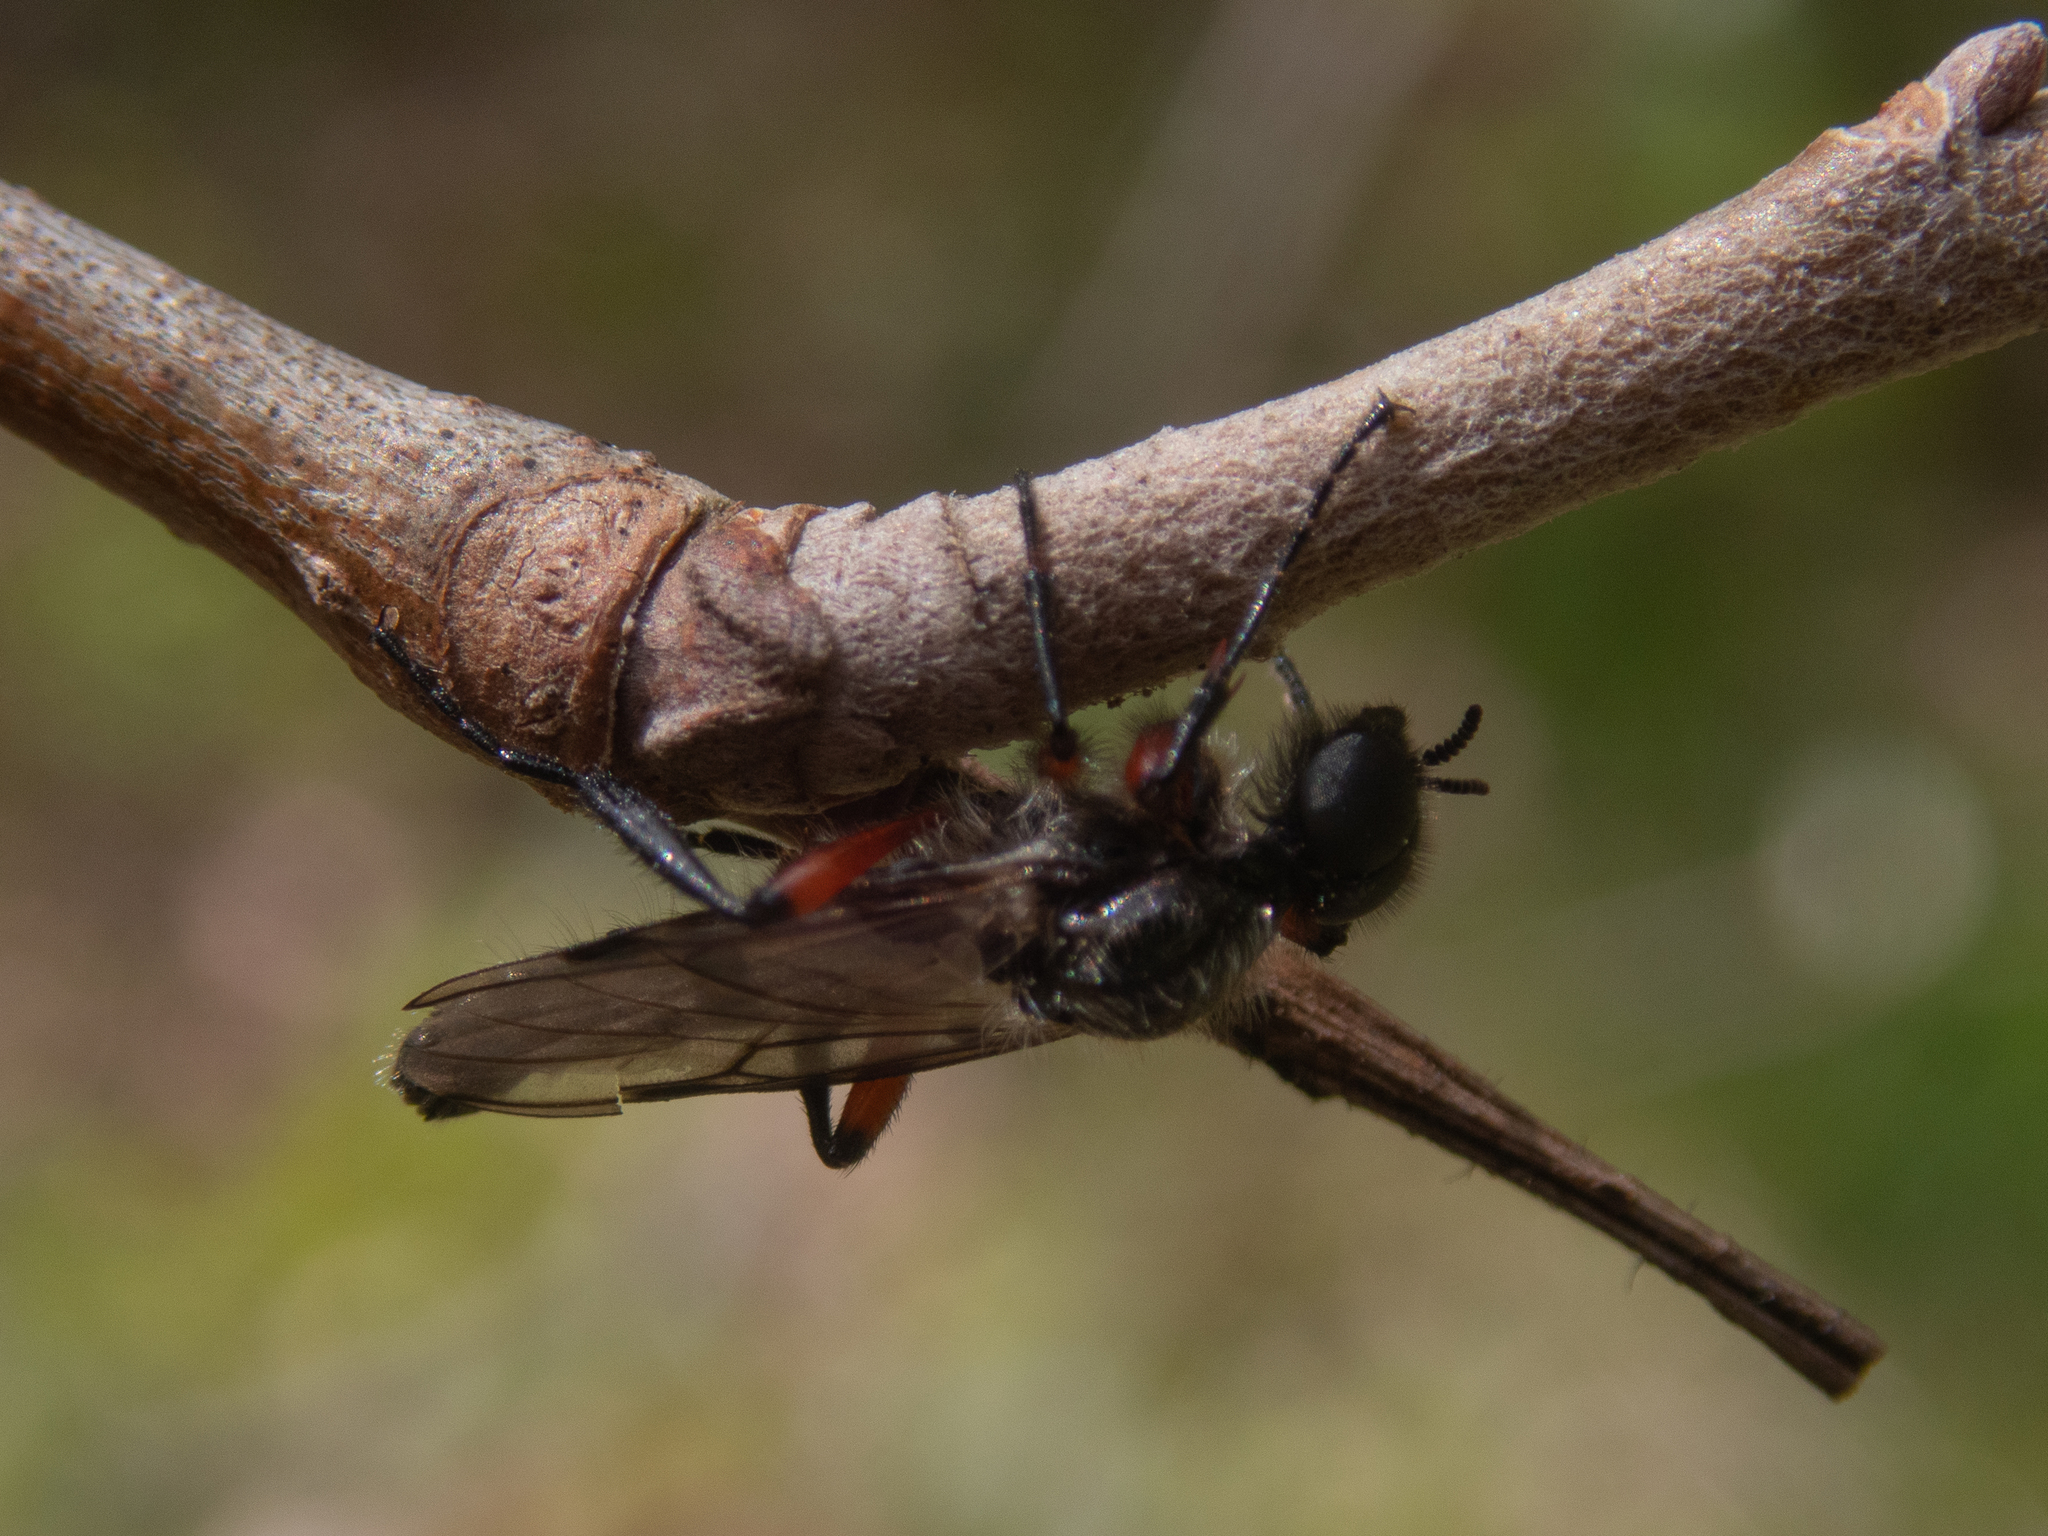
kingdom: Animalia
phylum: Arthropoda
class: Insecta
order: Diptera
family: Bibionidae
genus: Bibio
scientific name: Bibio femoratus
